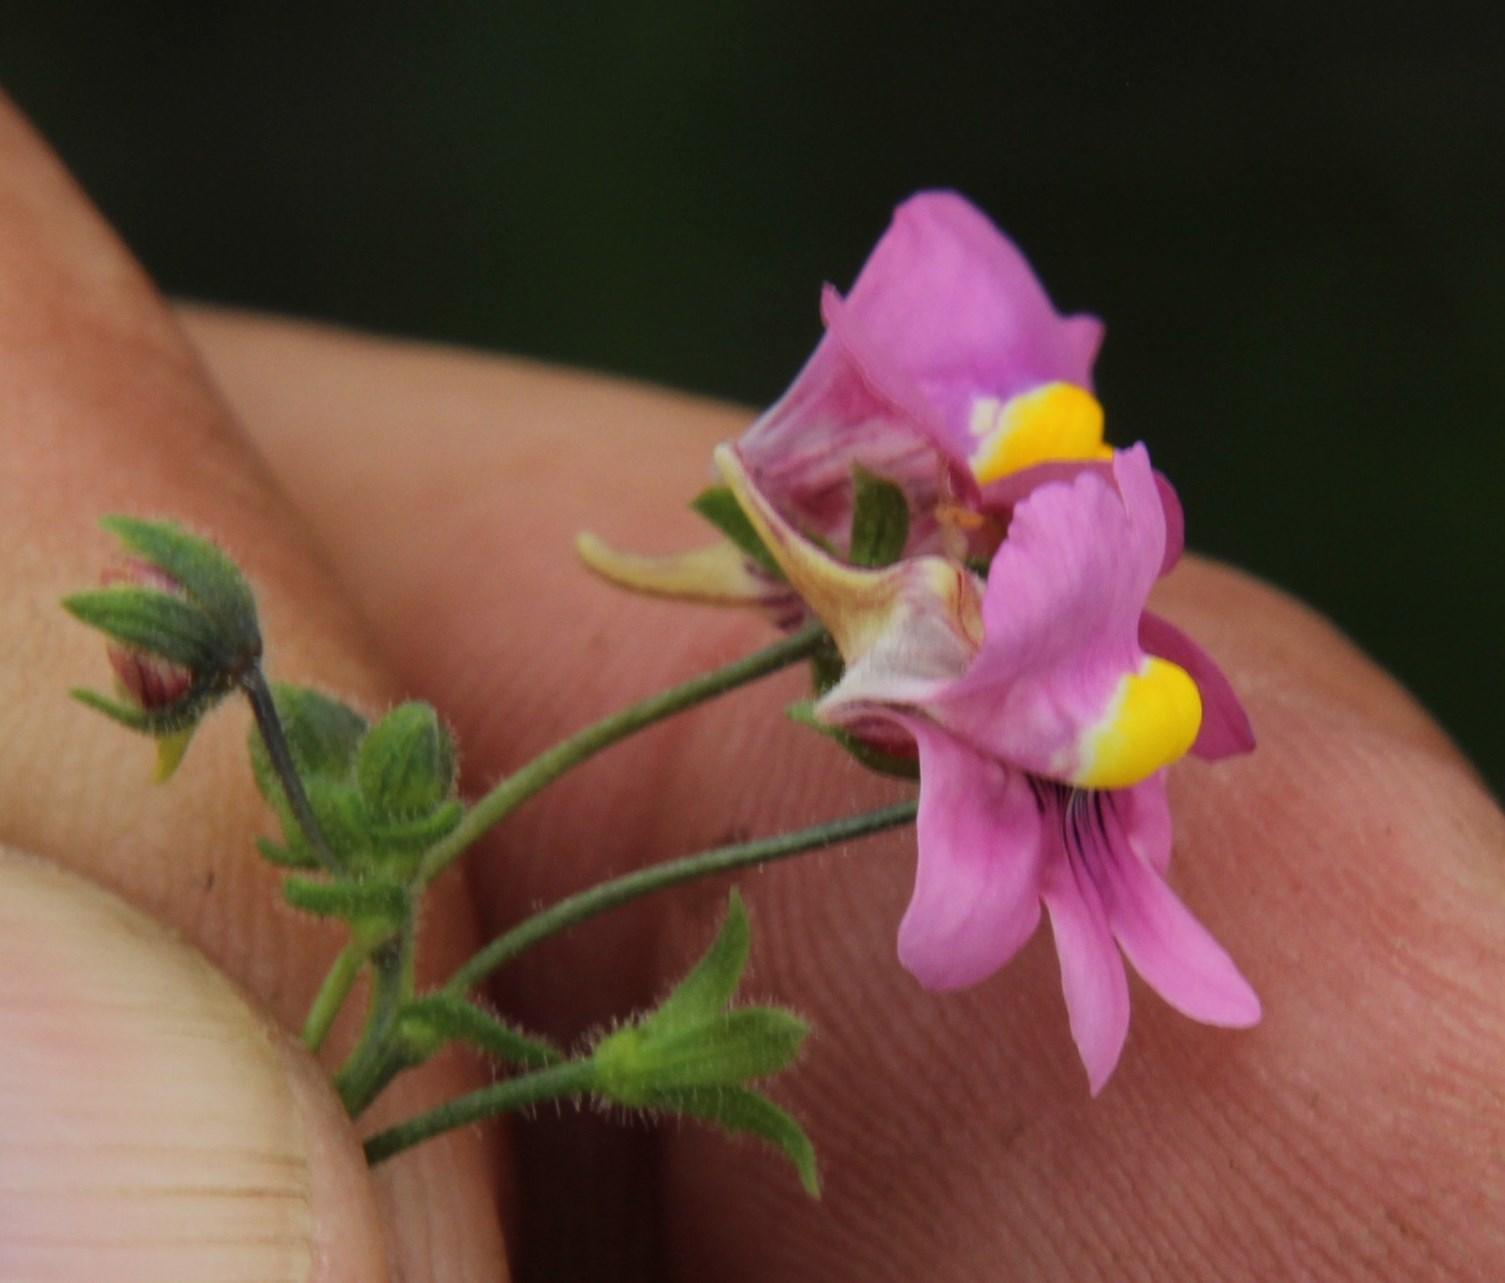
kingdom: Plantae
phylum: Tracheophyta
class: Magnoliopsida
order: Lamiales
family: Scrophulariaceae
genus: Nemesia
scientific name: Nemesia fruticans
